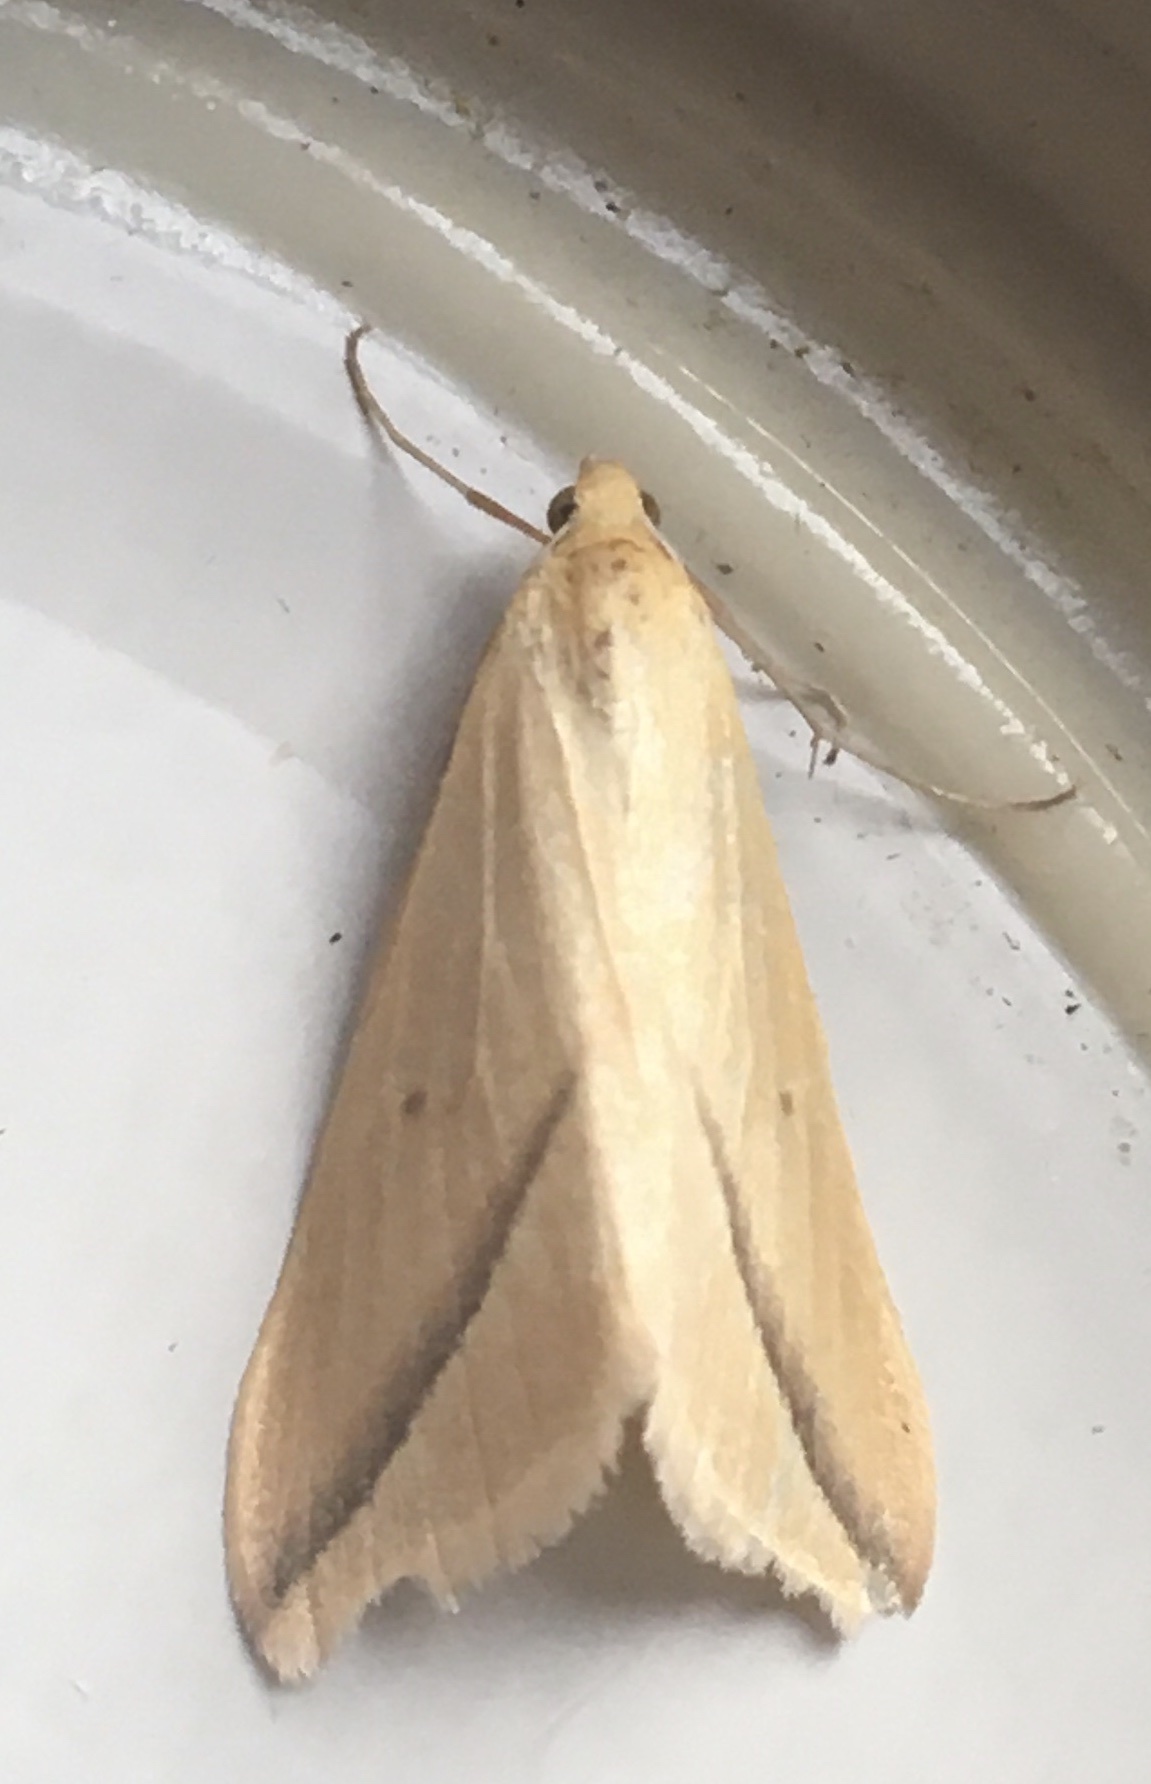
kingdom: Animalia
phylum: Arthropoda
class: Insecta
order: Lepidoptera
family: Geometridae
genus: Rhodometra
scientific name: Rhodometra sacraria
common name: Vestal
